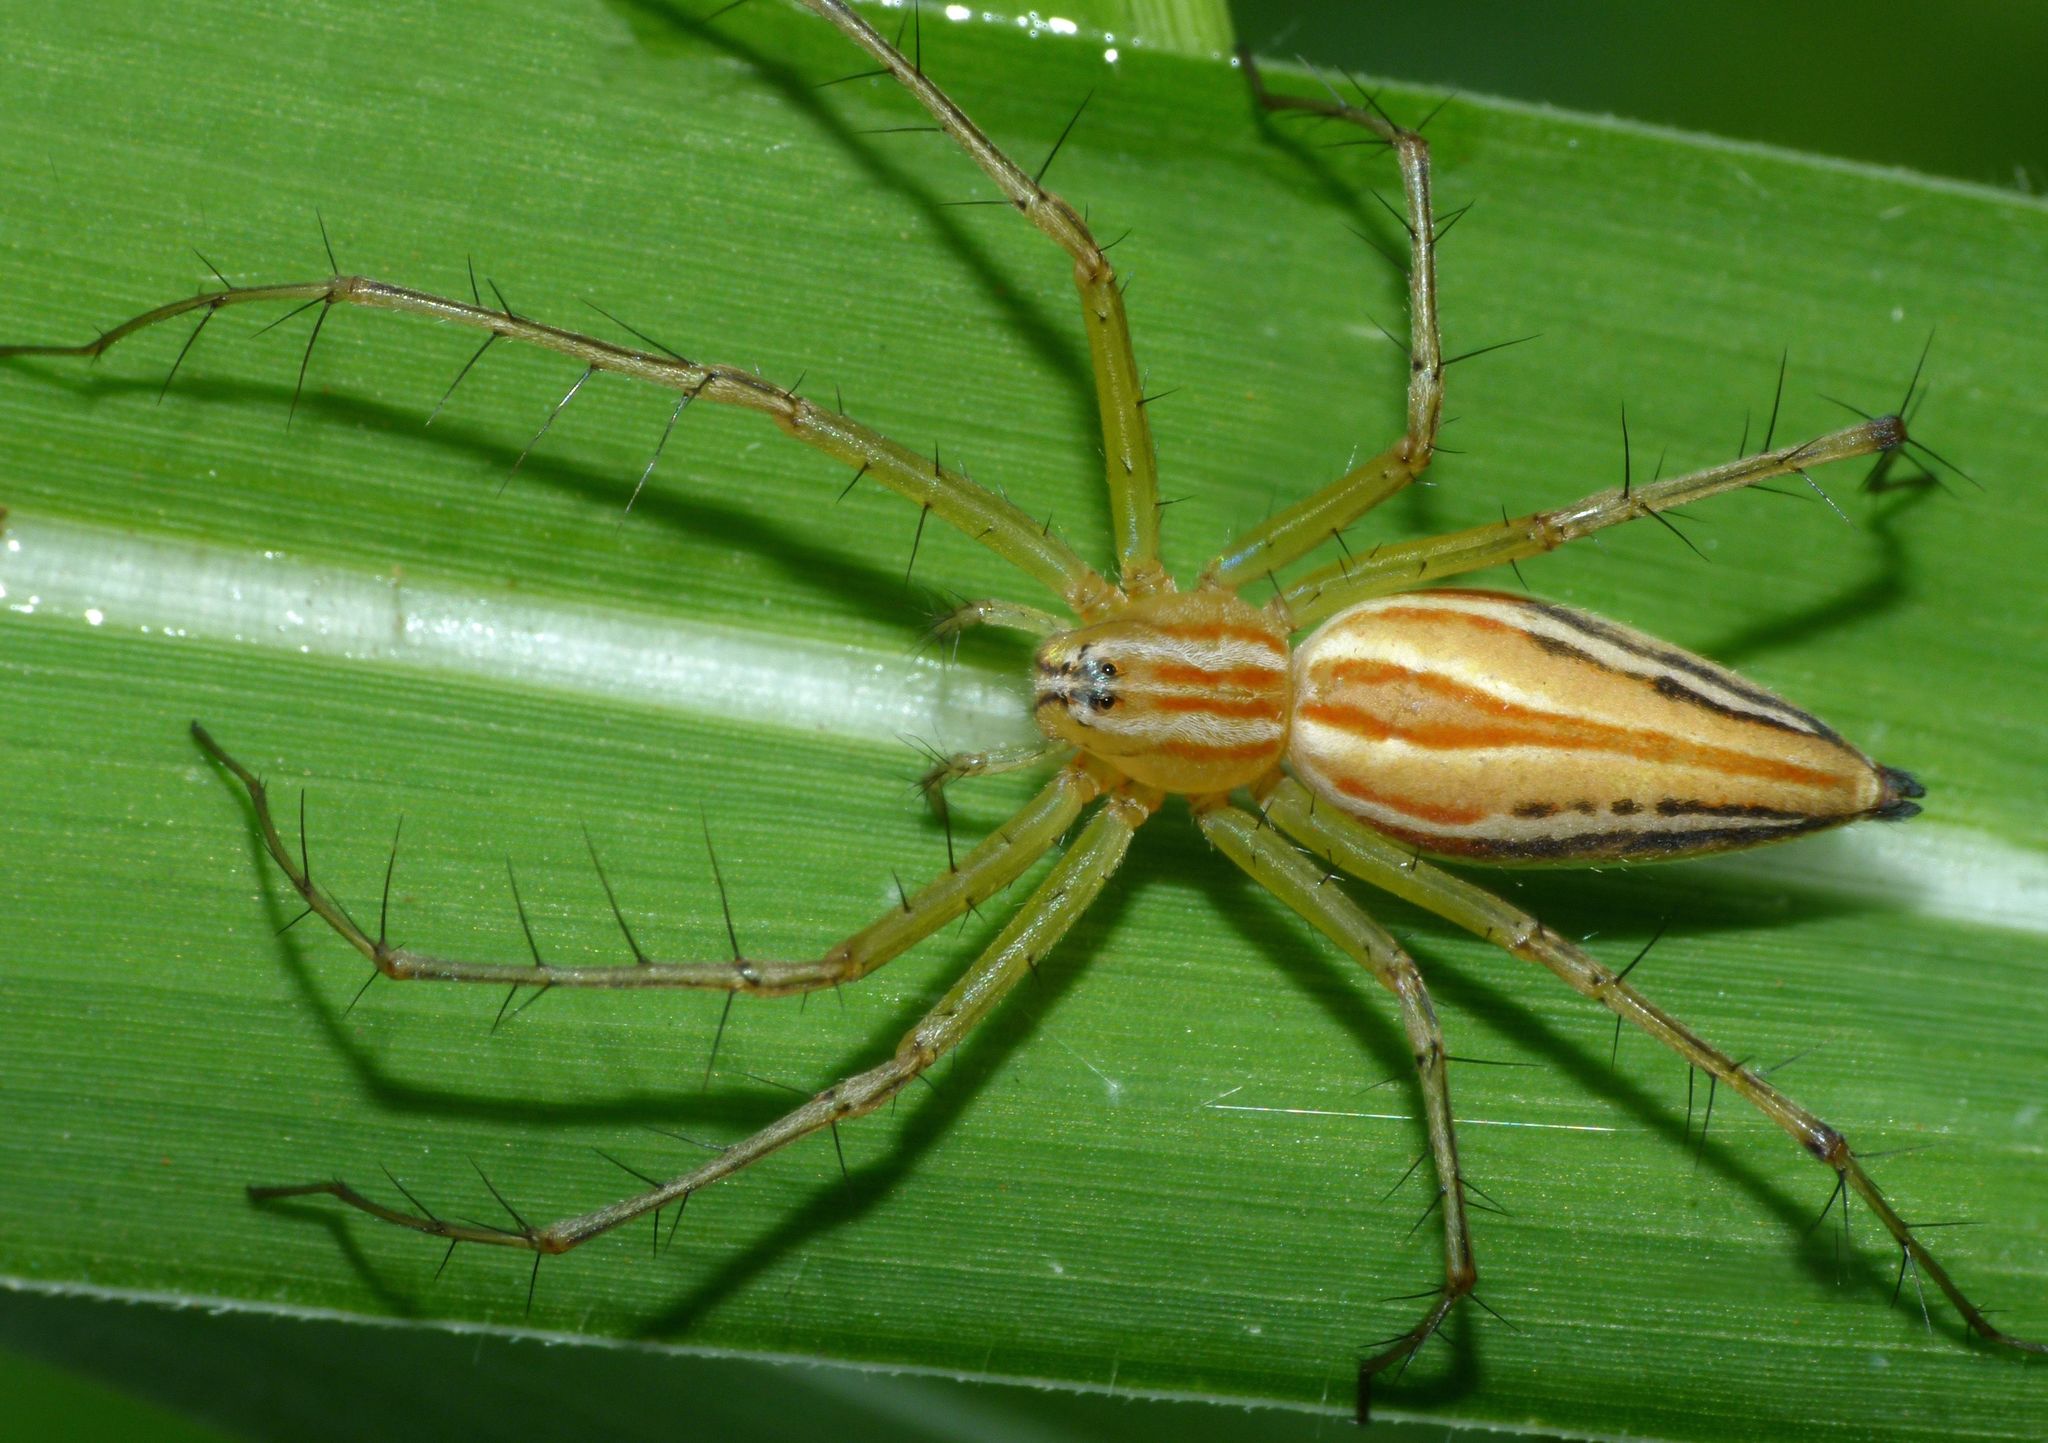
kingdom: Animalia
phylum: Arthropoda
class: Arachnida
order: Araneae
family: Oxyopidae
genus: Oxyopes
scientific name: Oxyopes macilentus
